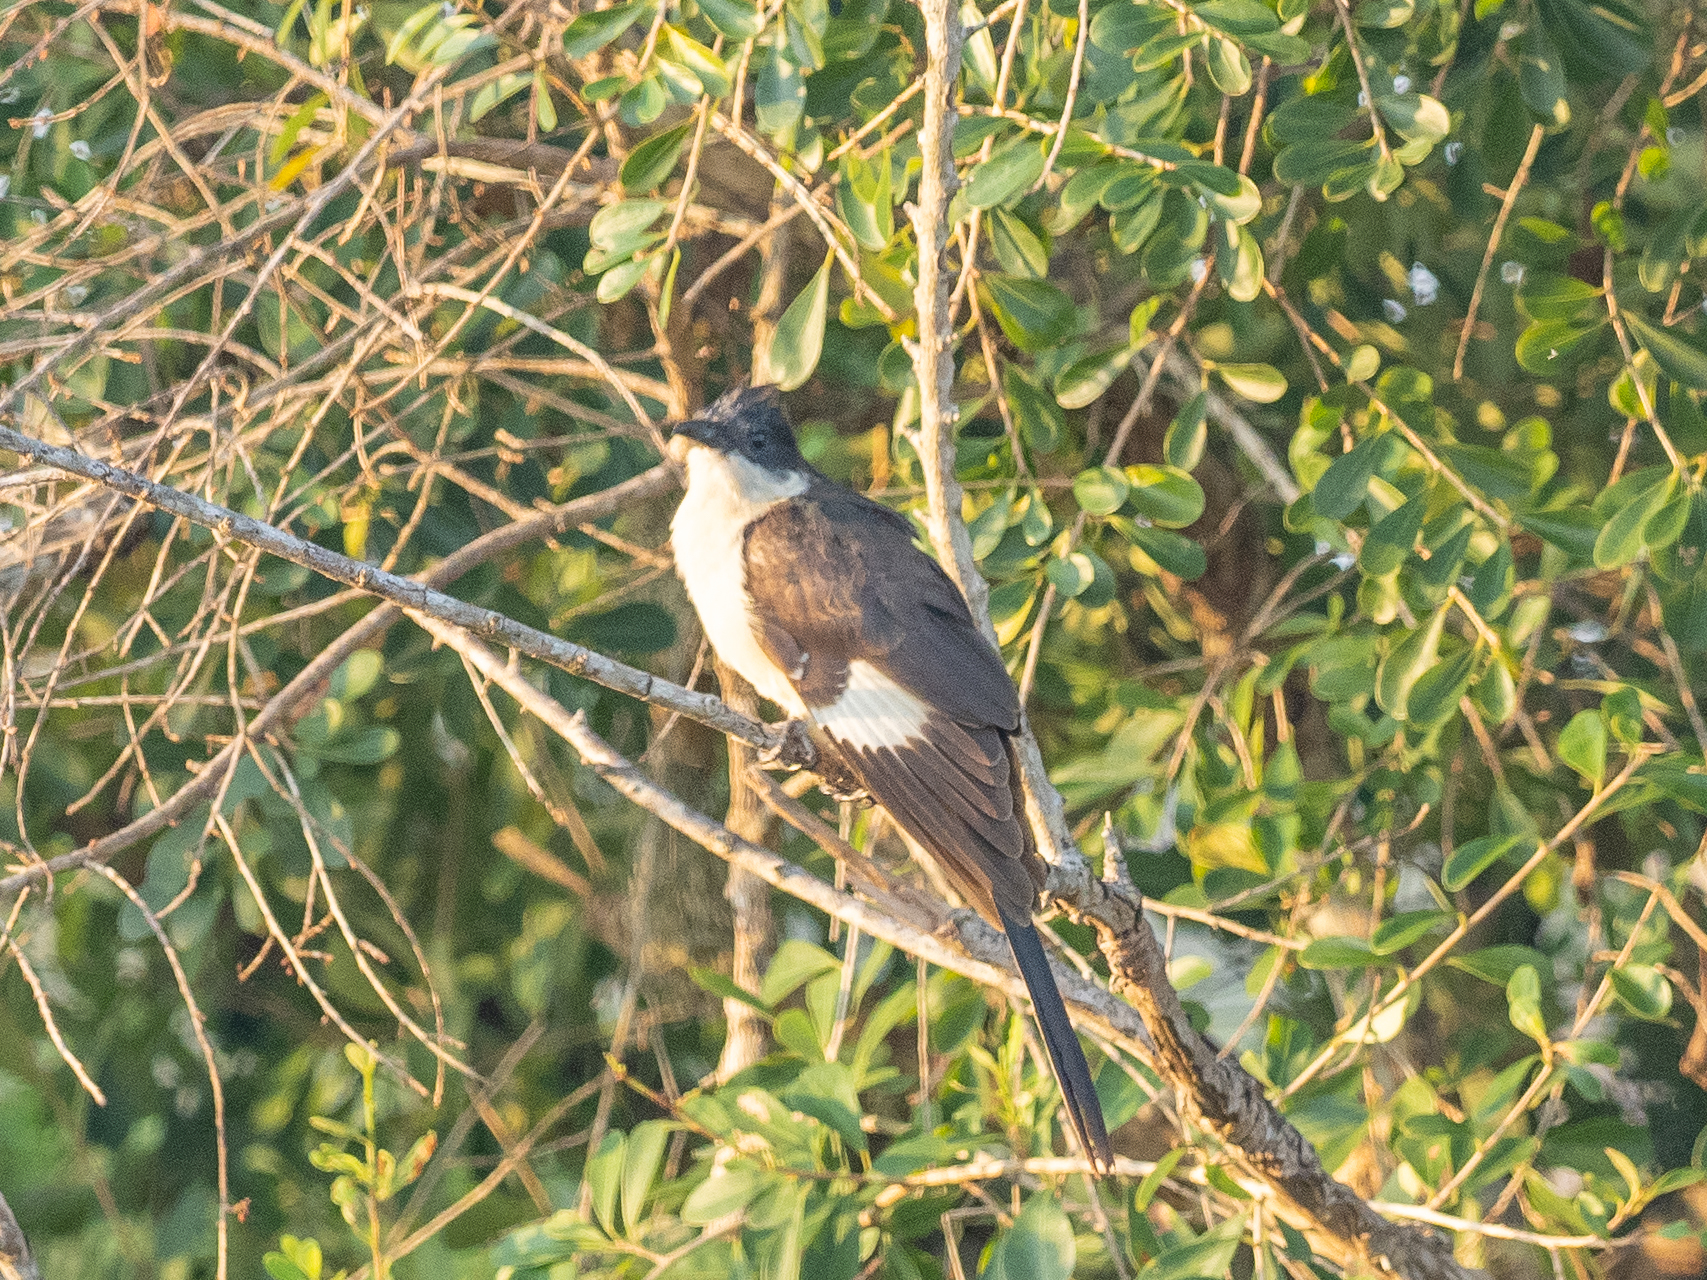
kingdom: Animalia
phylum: Chordata
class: Aves
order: Cuculiformes
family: Cuculidae
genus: Clamator
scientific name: Clamator jacobinus
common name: Jacobin cuckoo
